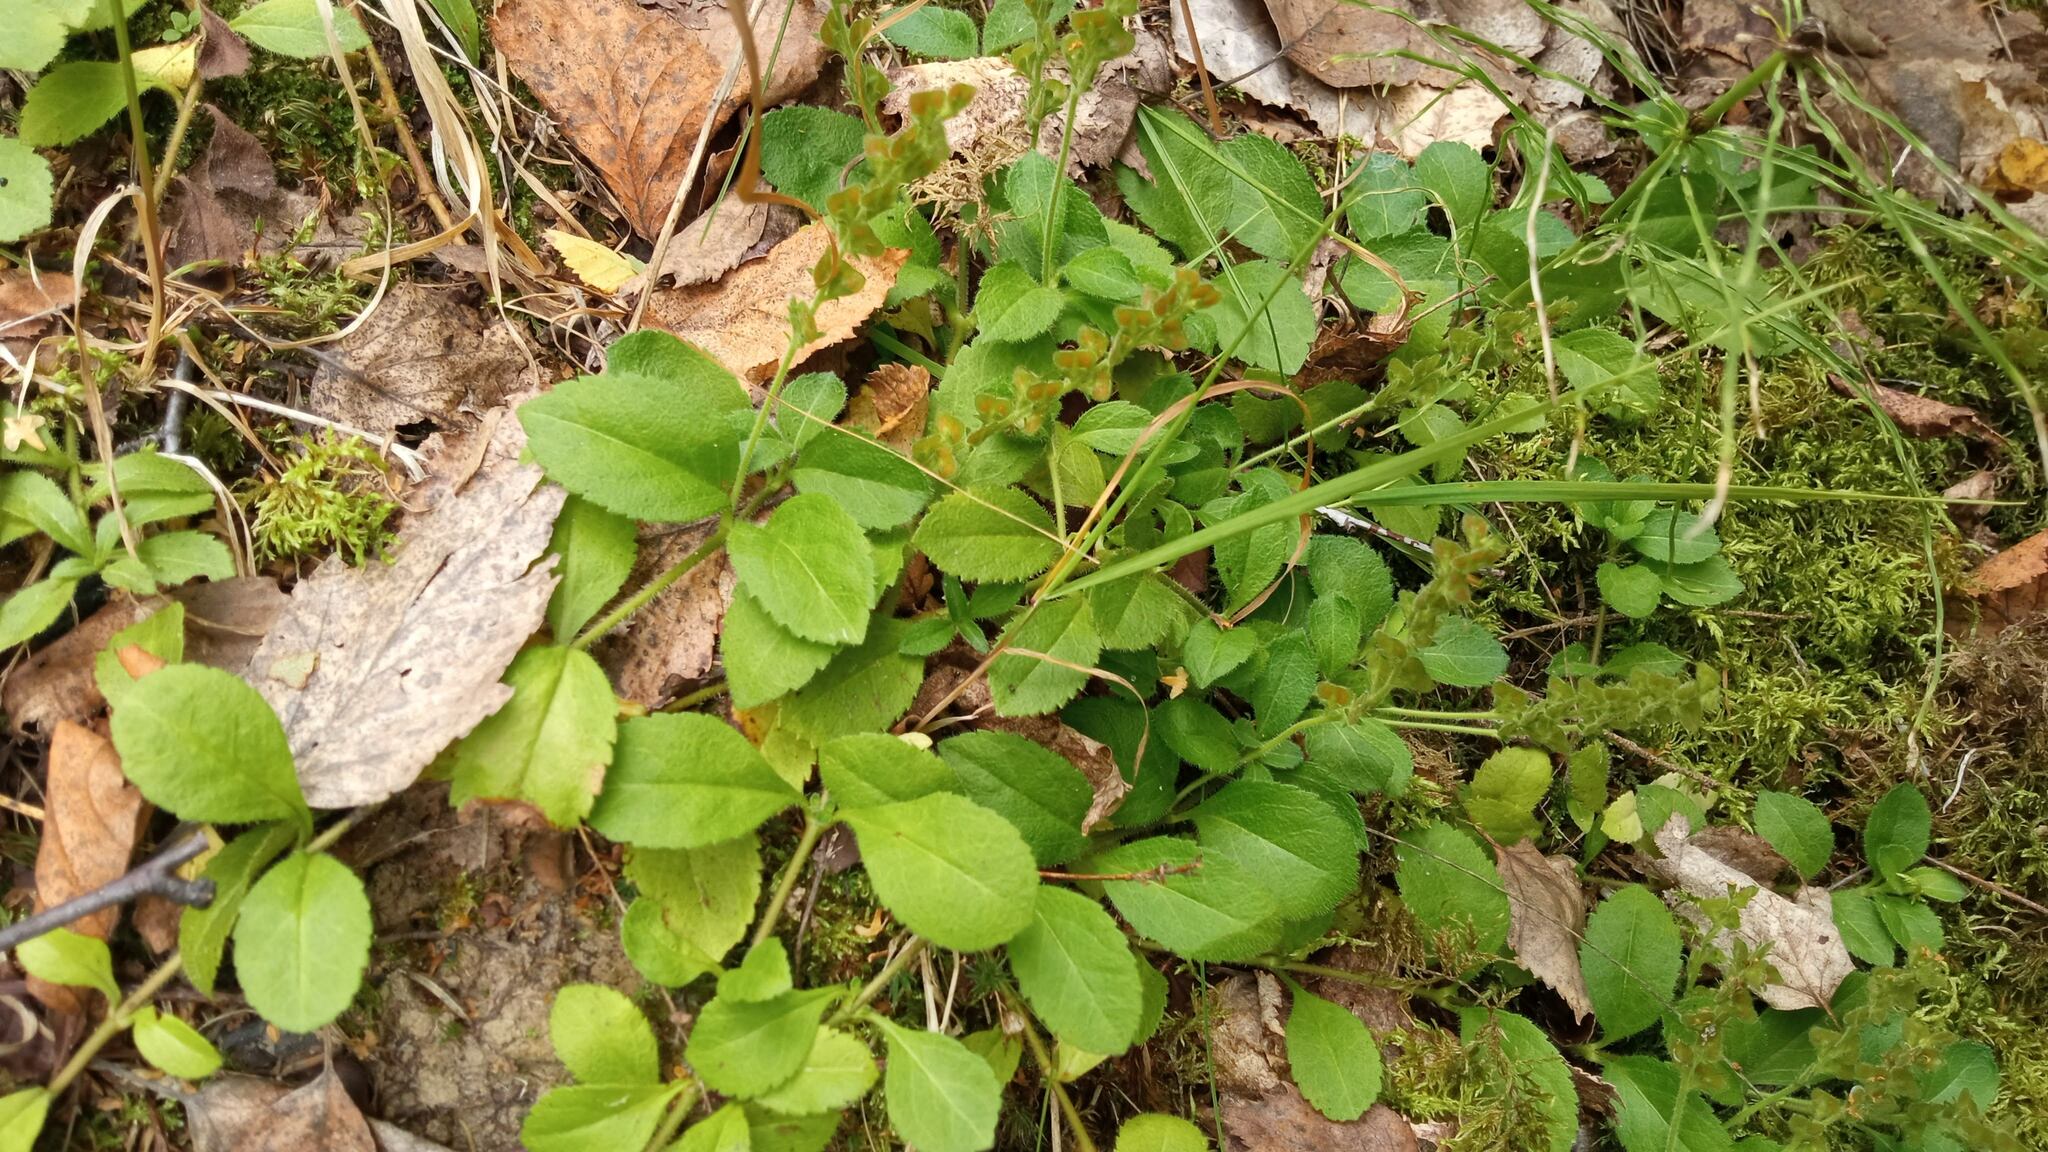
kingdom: Plantae
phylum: Tracheophyta
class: Magnoliopsida
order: Lamiales
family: Plantaginaceae
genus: Veronica
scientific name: Veronica officinalis
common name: Common speedwell
